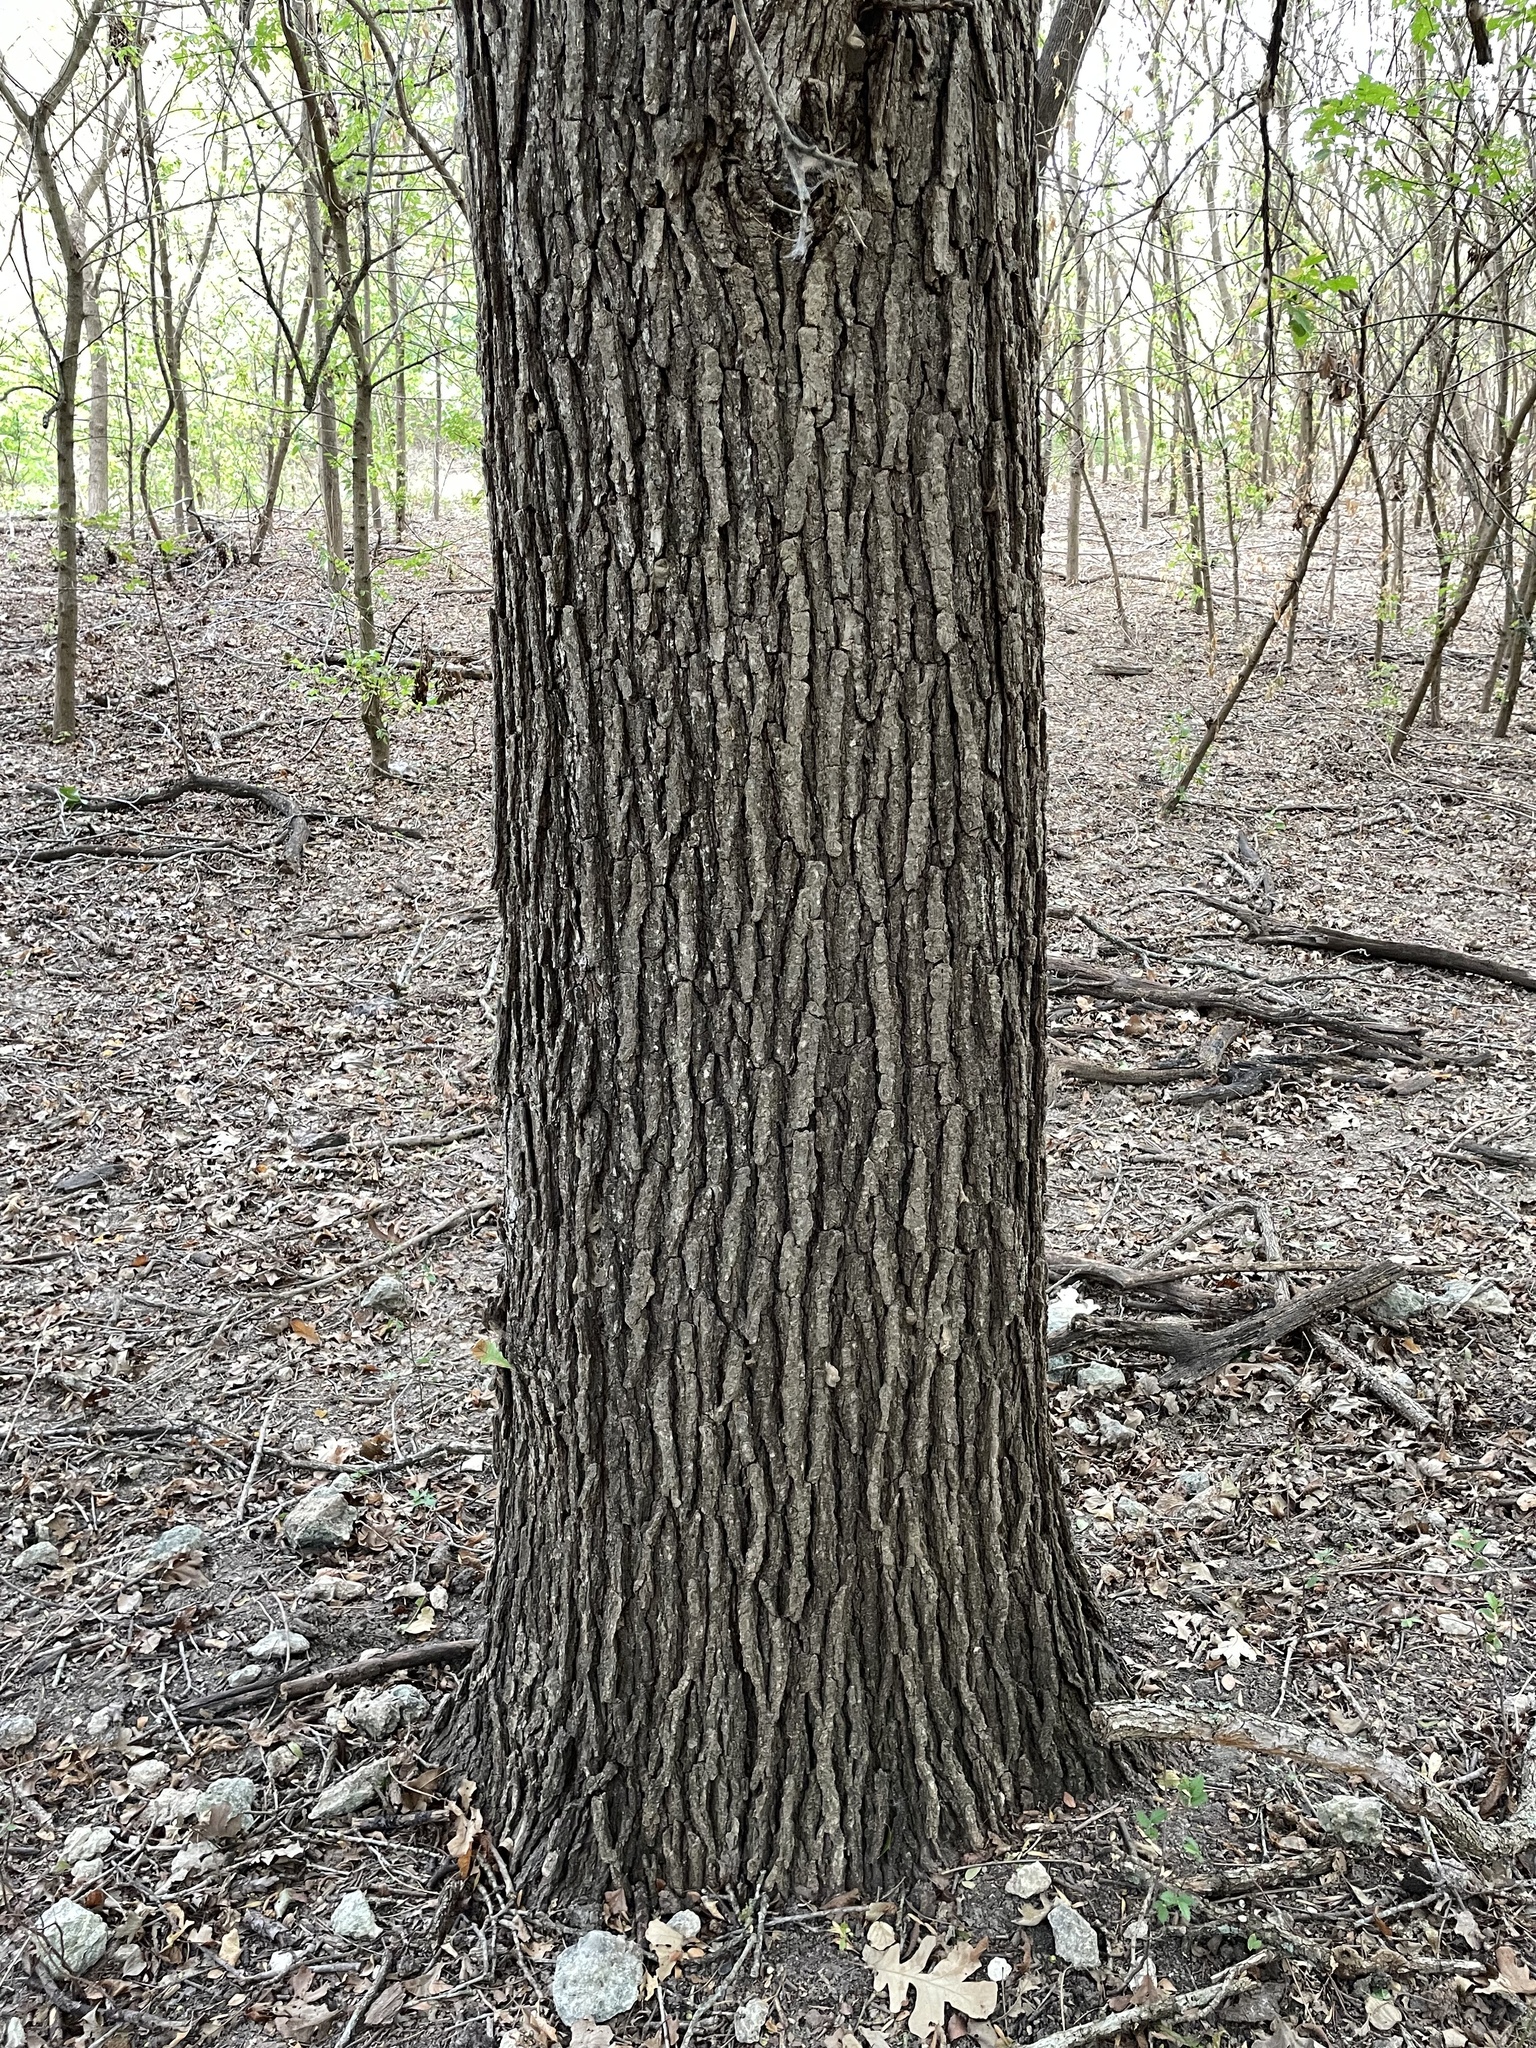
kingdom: Plantae
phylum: Tracheophyta
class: Magnoliopsida
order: Fagales
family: Fagaceae
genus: Quercus
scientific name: Quercus macrocarpa
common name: Bur oak
